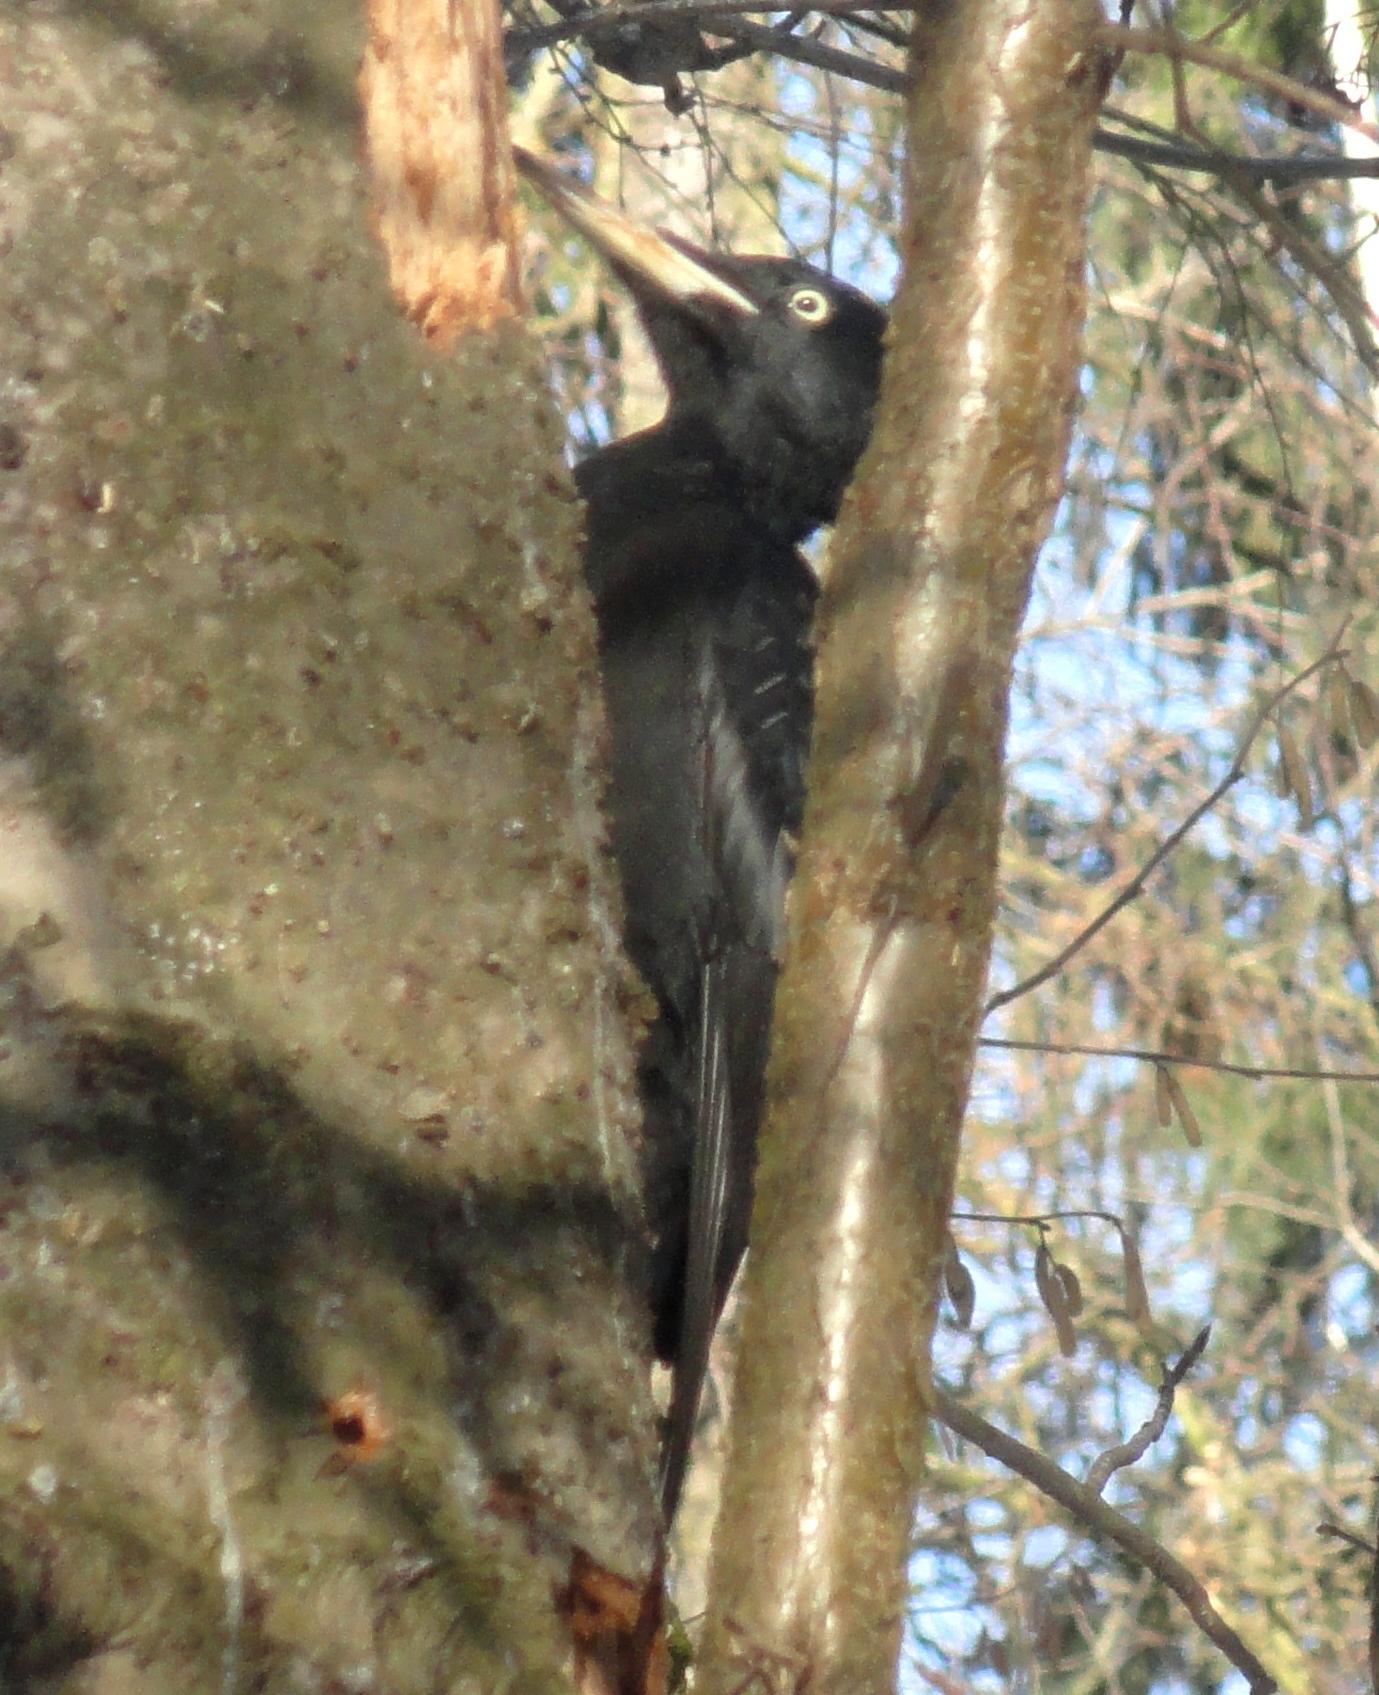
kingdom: Animalia
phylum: Chordata
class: Aves
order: Piciformes
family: Picidae
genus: Dryocopus
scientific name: Dryocopus martius
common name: Black woodpecker
